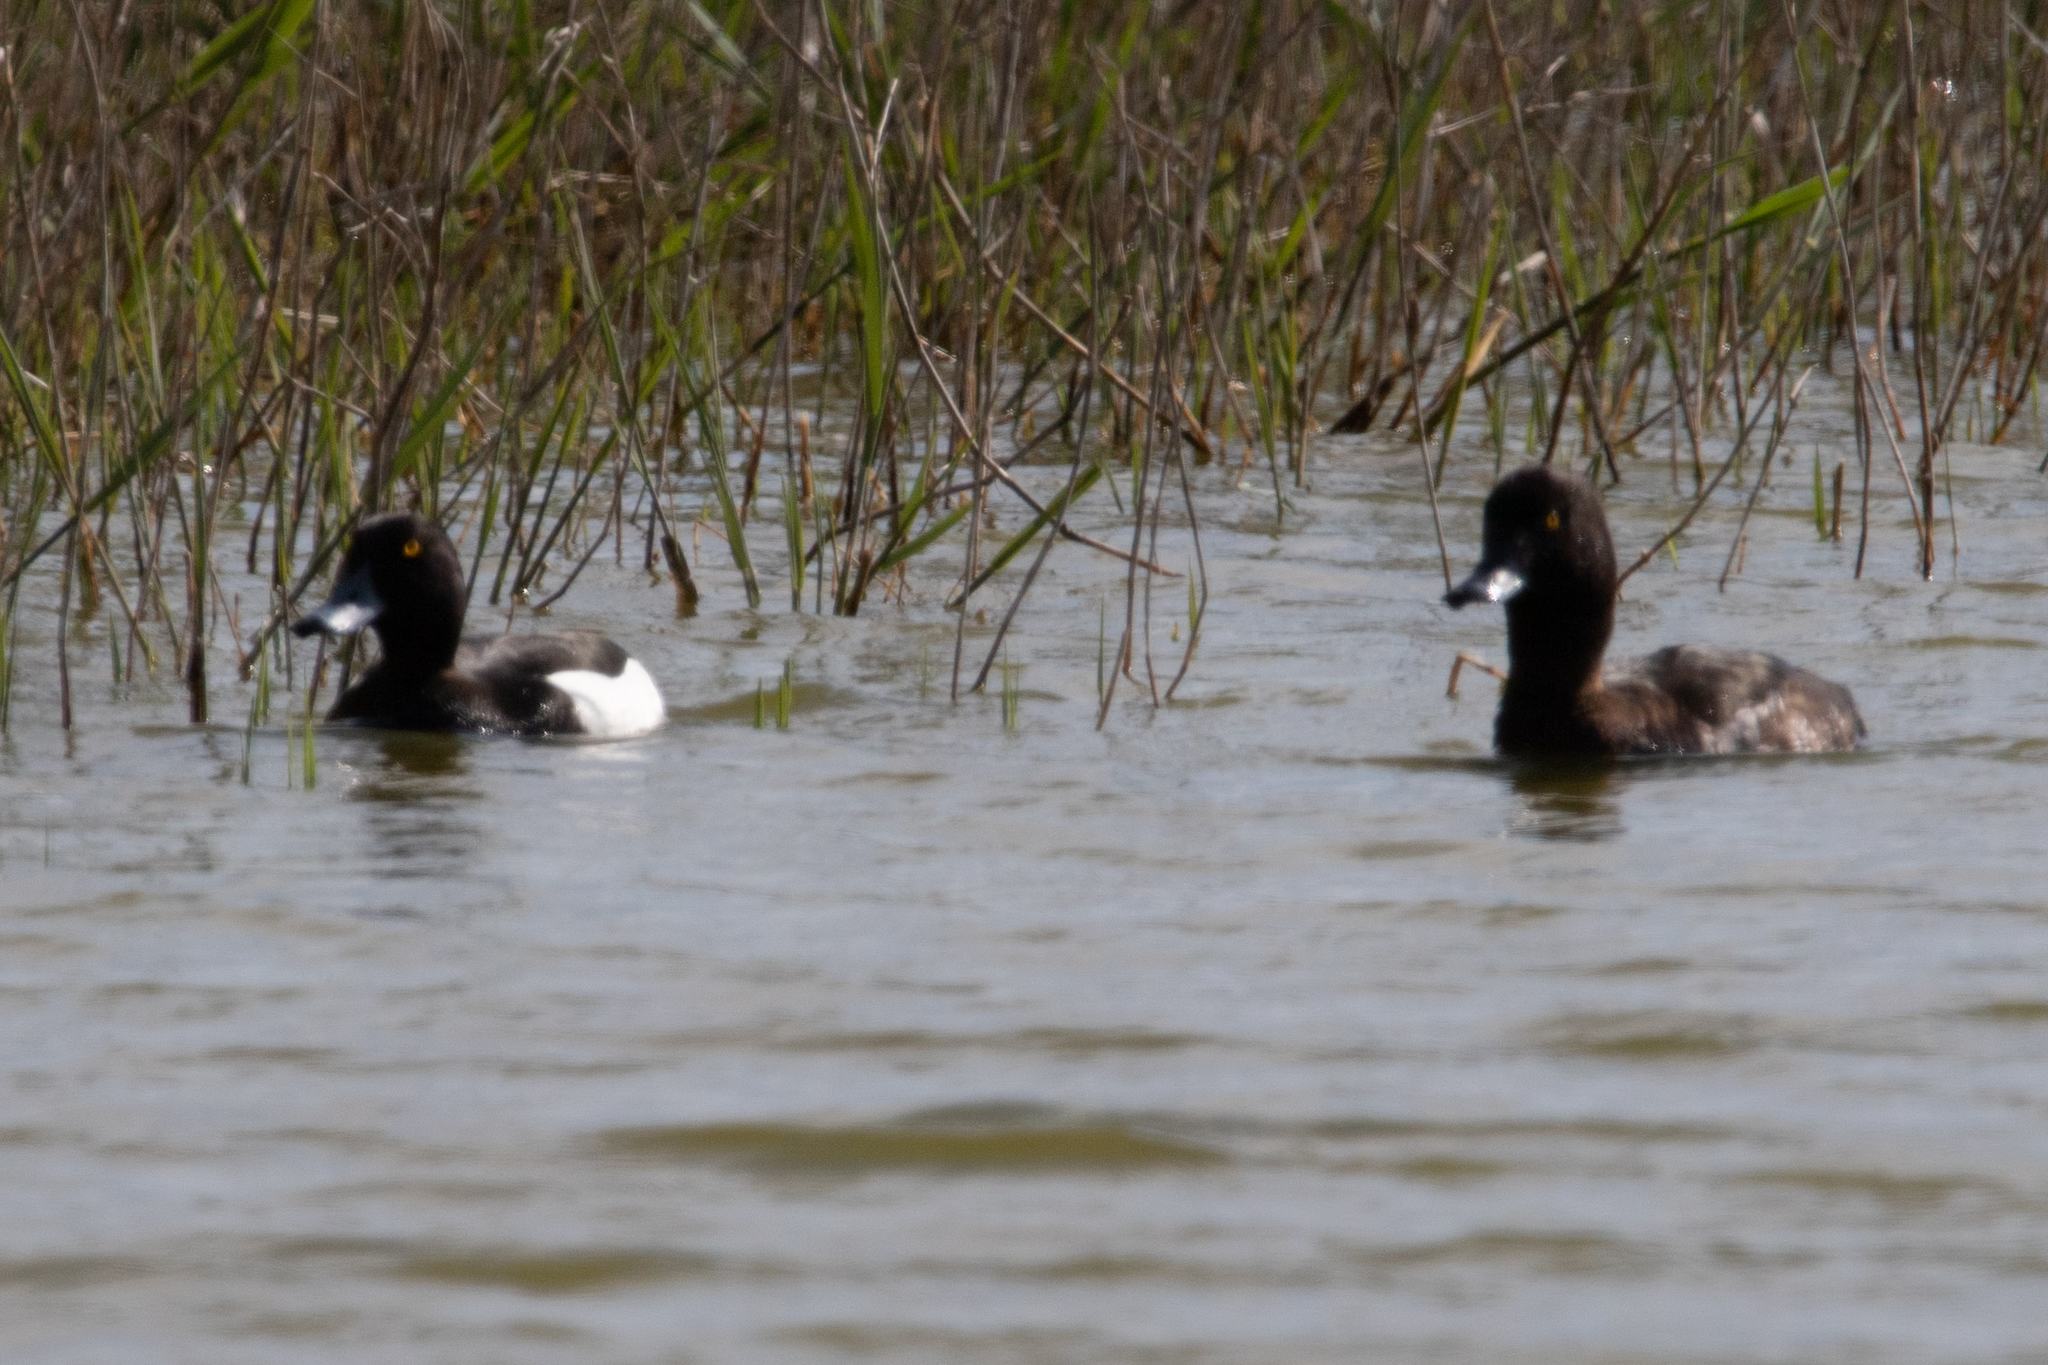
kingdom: Animalia
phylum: Chordata
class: Aves
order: Anseriformes
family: Anatidae
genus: Aythya
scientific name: Aythya fuligula
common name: Tufted duck
